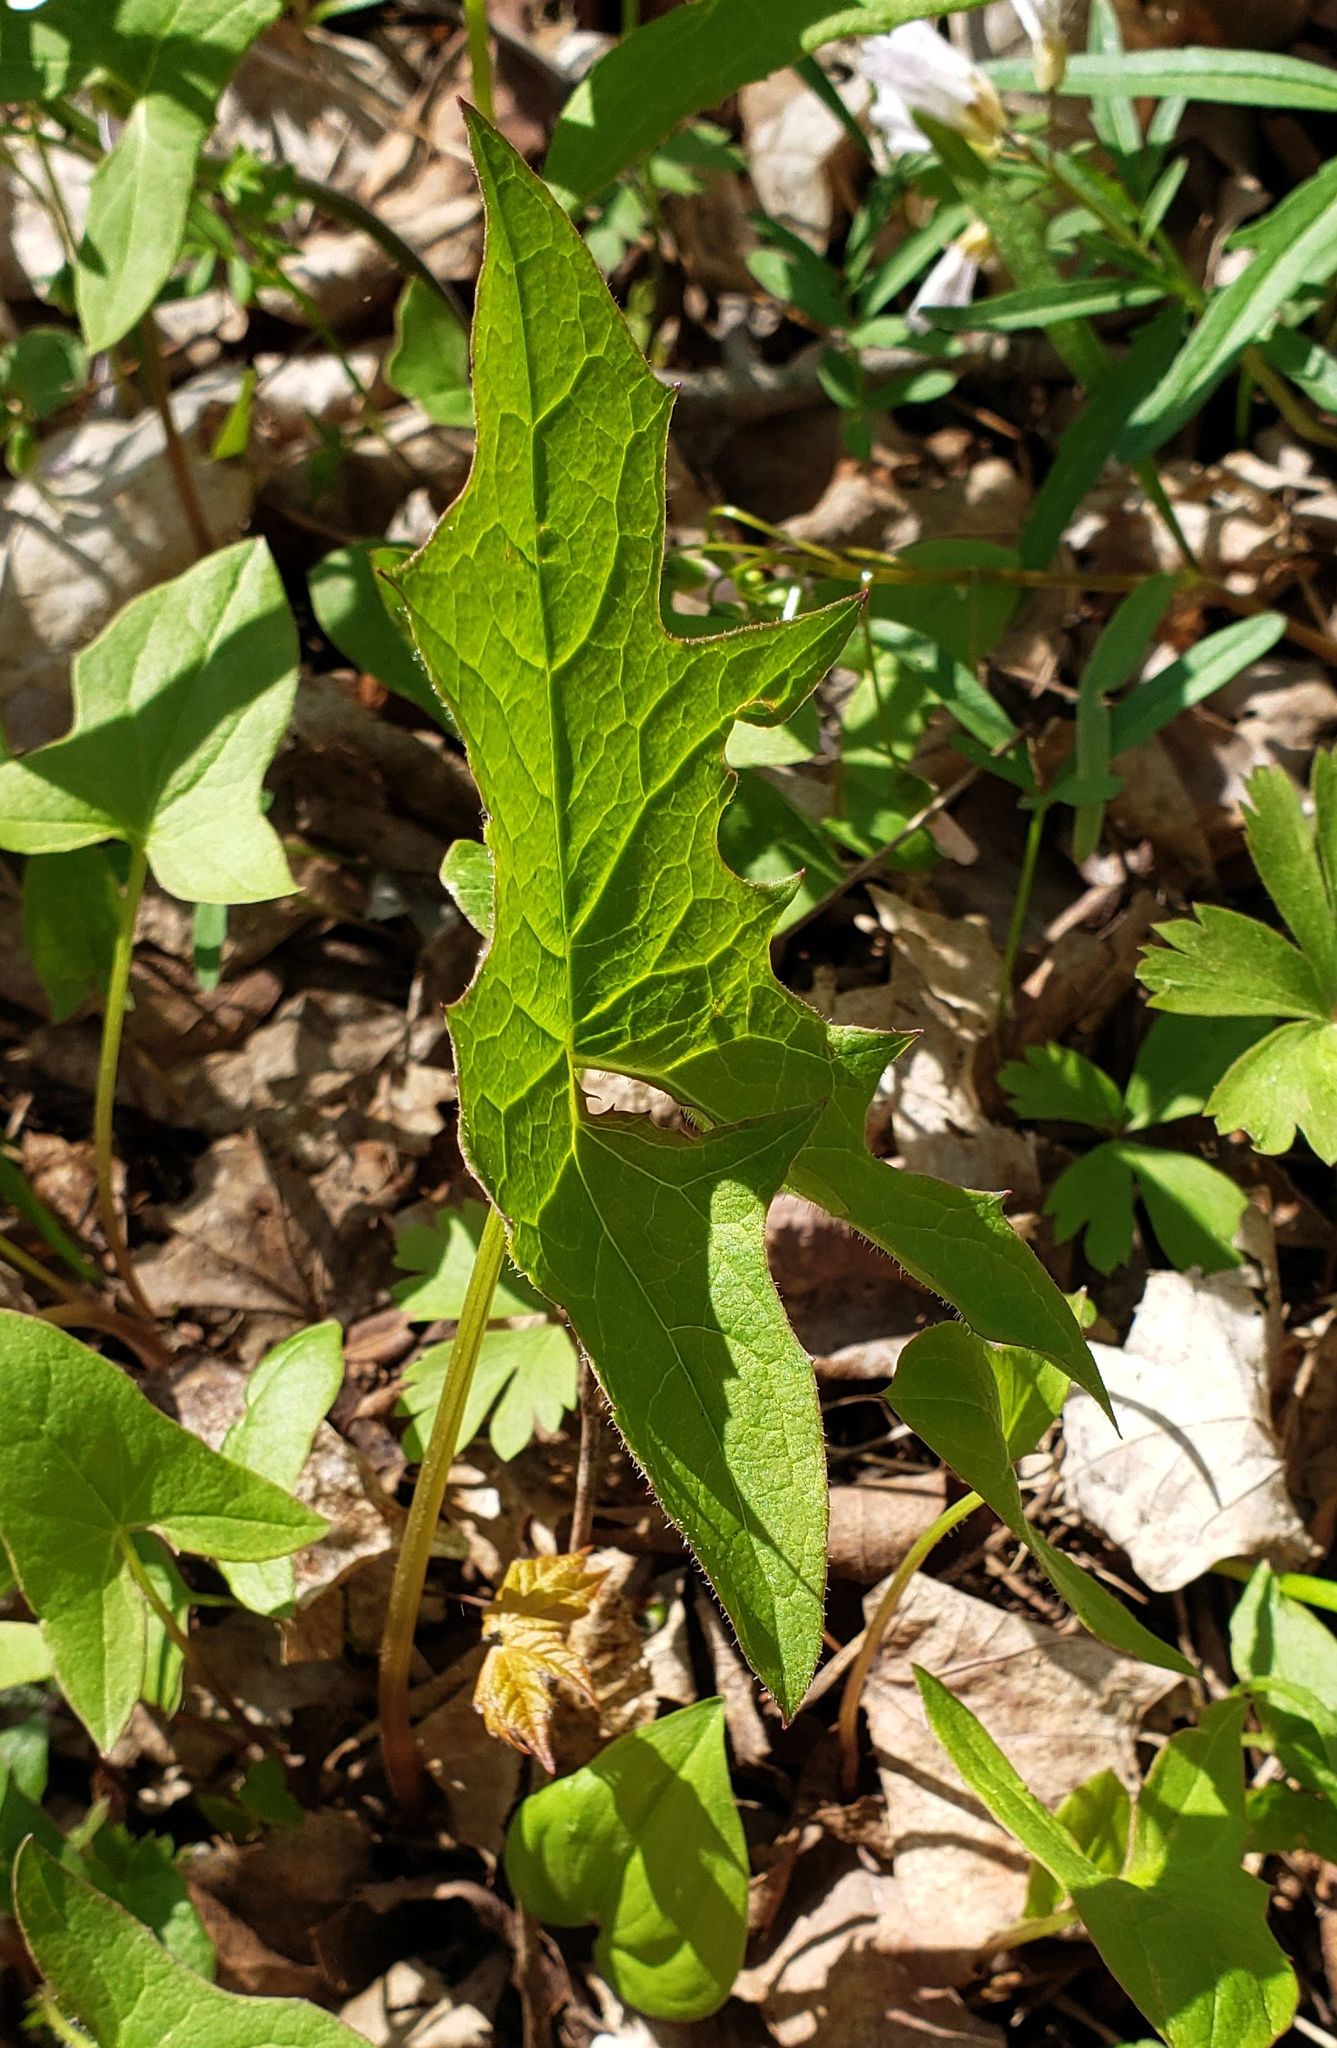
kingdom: Plantae
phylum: Tracheophyta
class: Magnoliopsida
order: Asterales
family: Asteraceae
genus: Nabalus
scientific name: Nabalus albus
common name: White rattlesnakeroot
